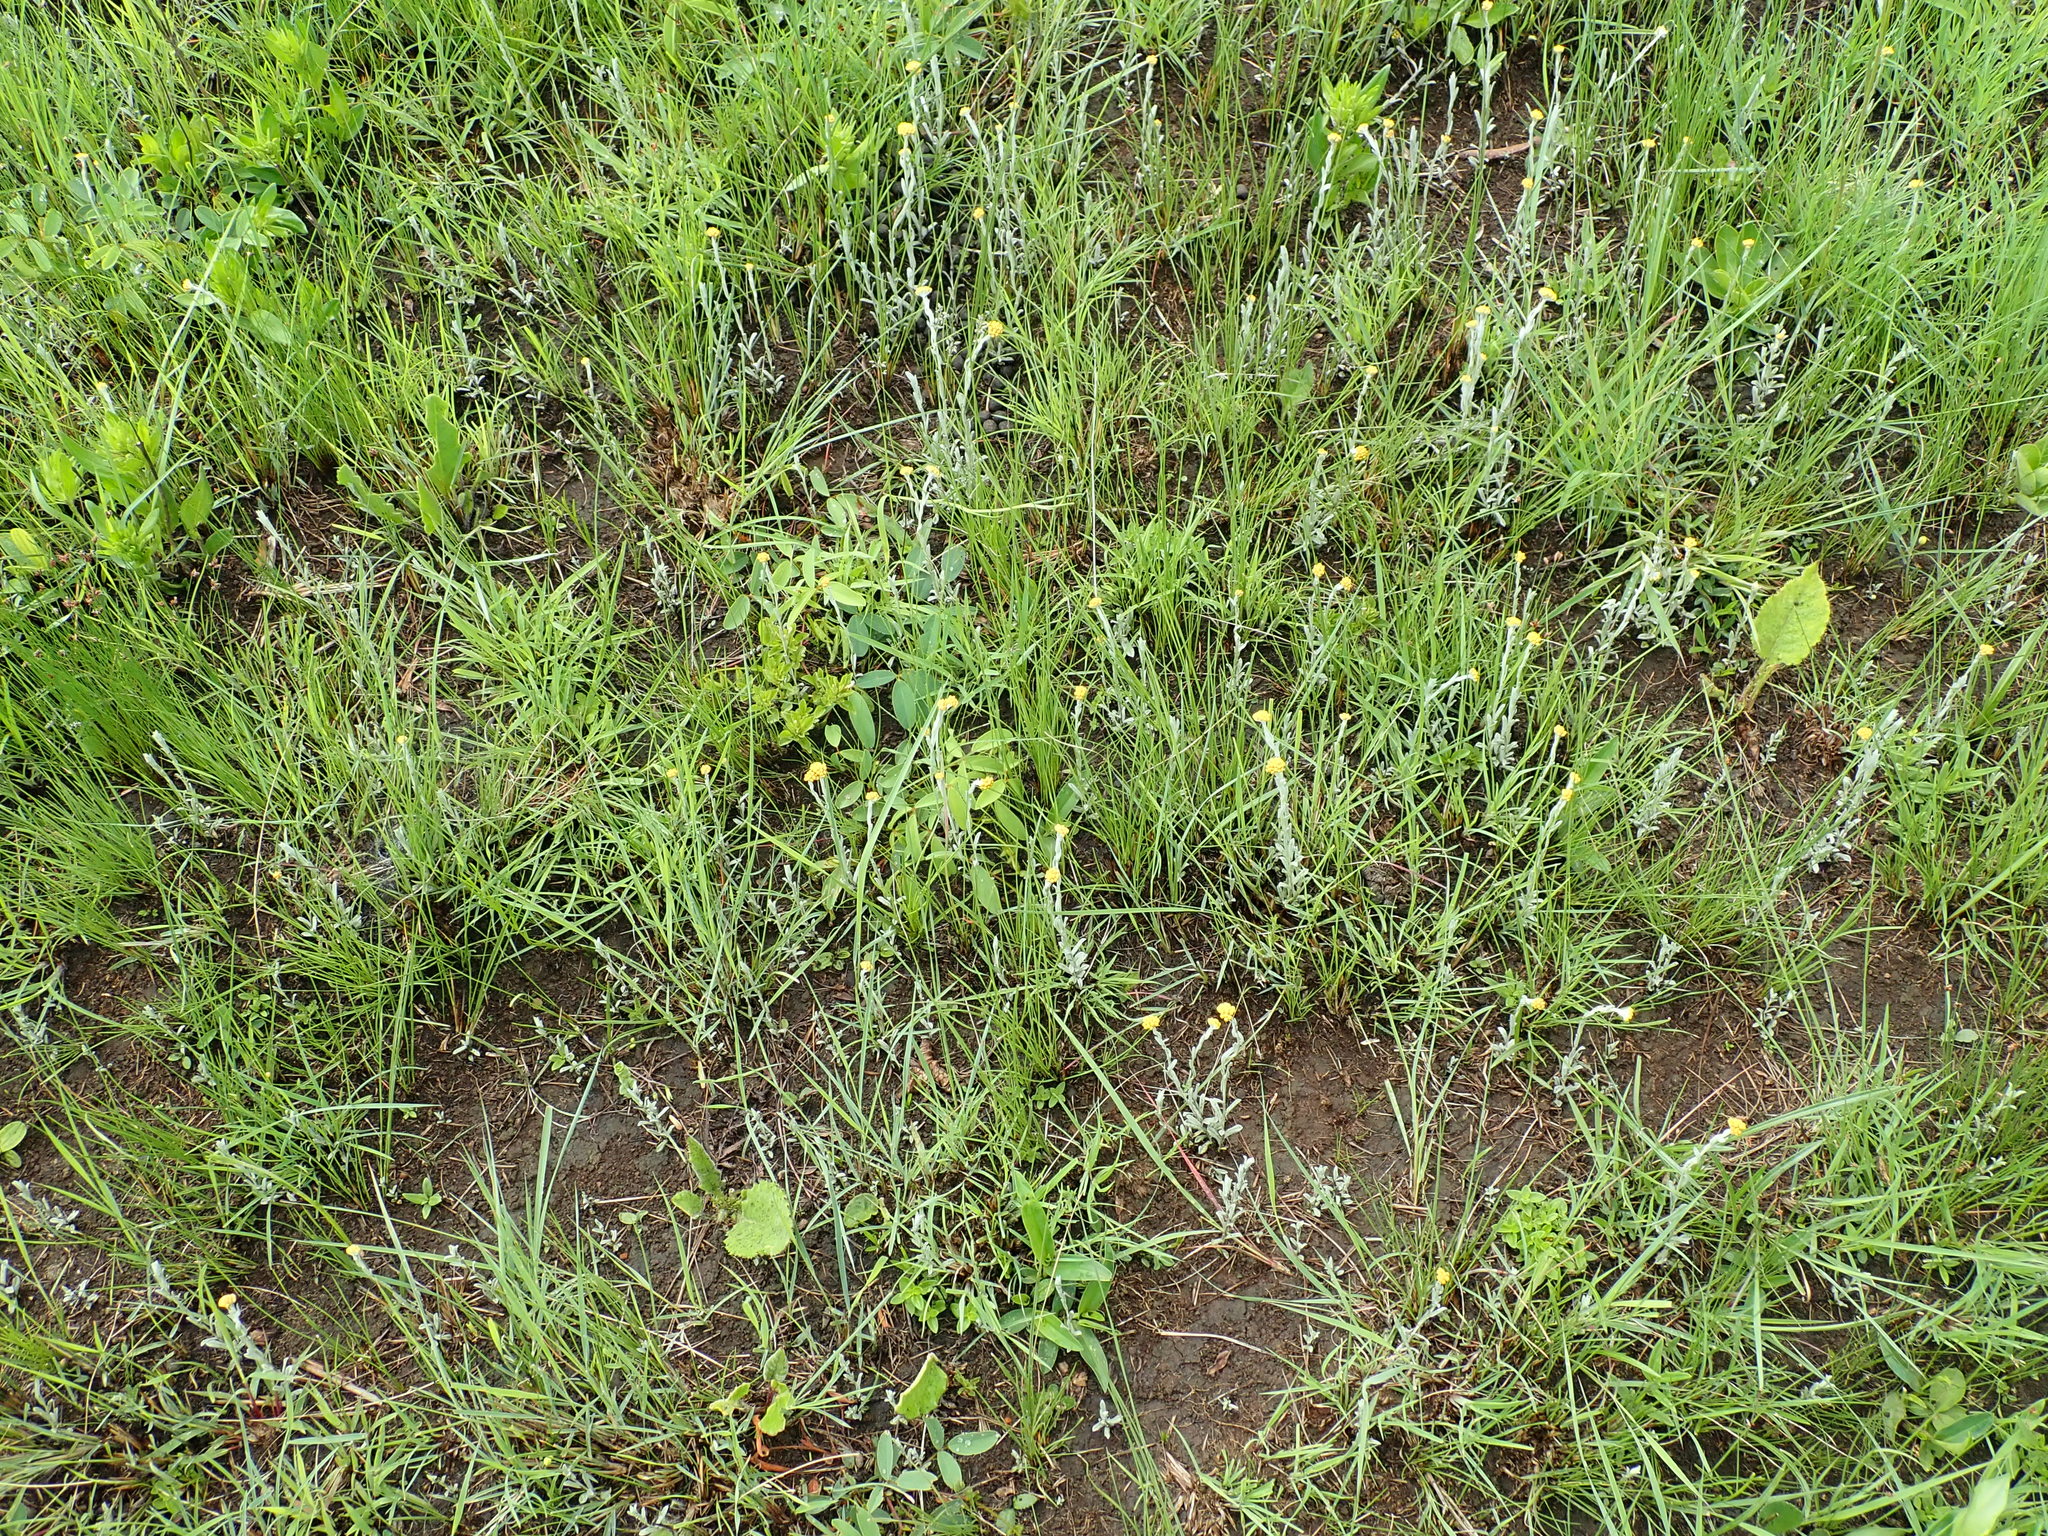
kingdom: Plantae
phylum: Tracheophyta
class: Magnoliopsida
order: Asterales
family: Asteraceae
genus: Helichrysum
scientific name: Helichrysum aureonitens
